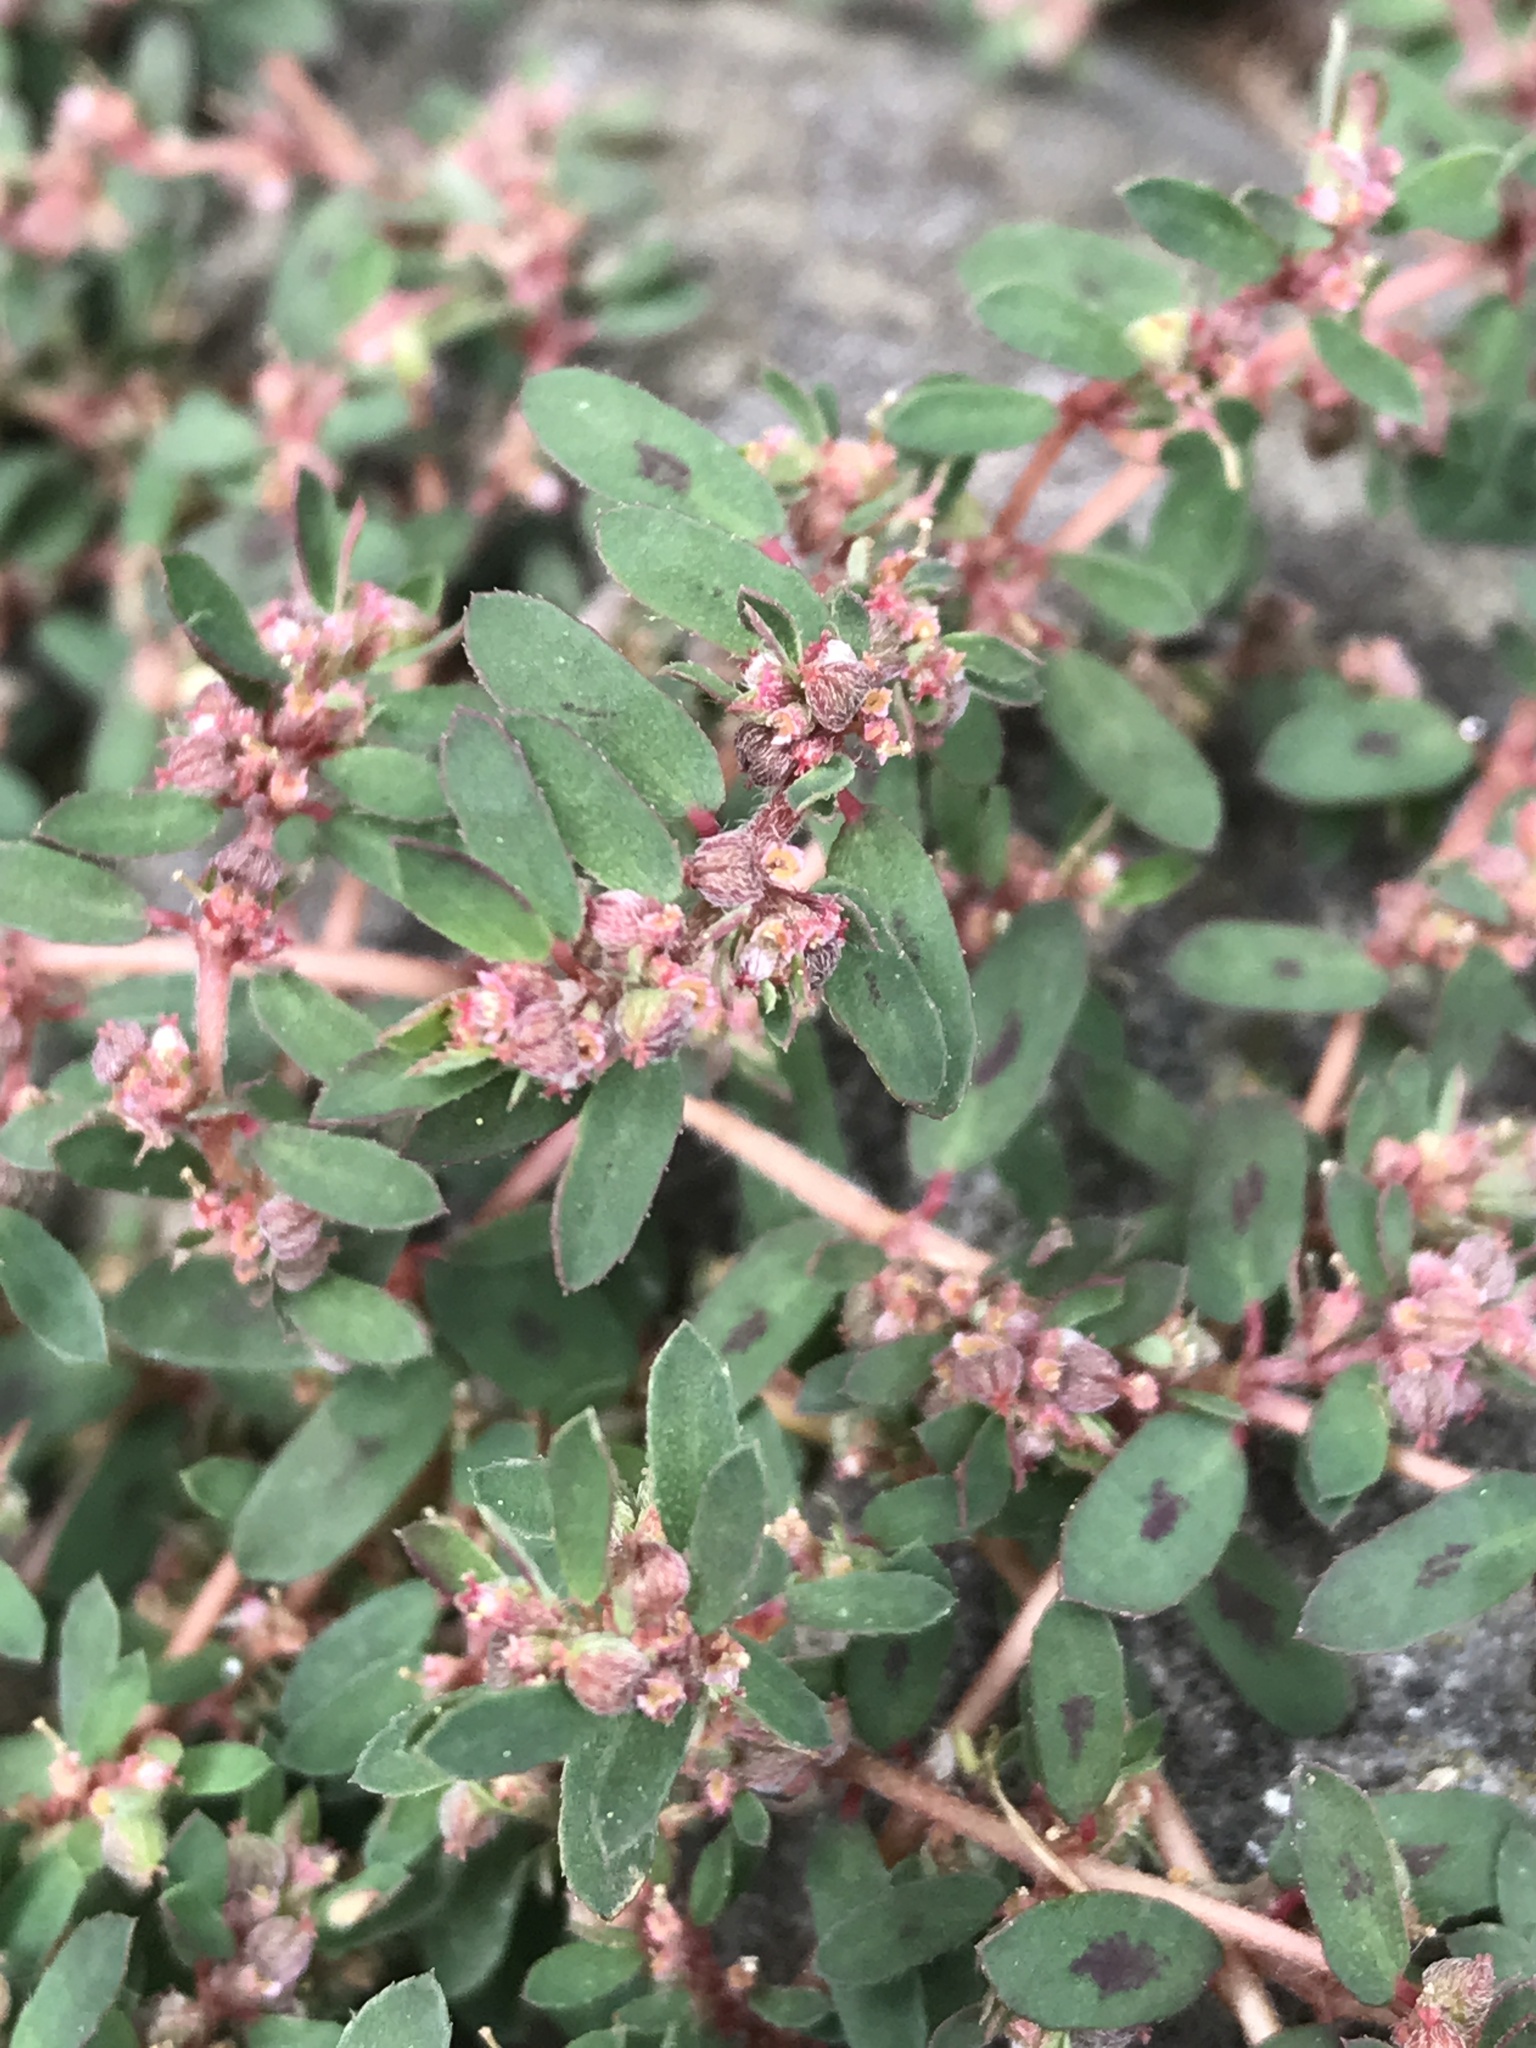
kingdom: Plantae
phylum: Tracheophyta
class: Magnoliopsida
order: Malpighiales
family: Euphorbiaceae
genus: Euphorbia
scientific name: Euphorbia maculata
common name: Spotted spurge
